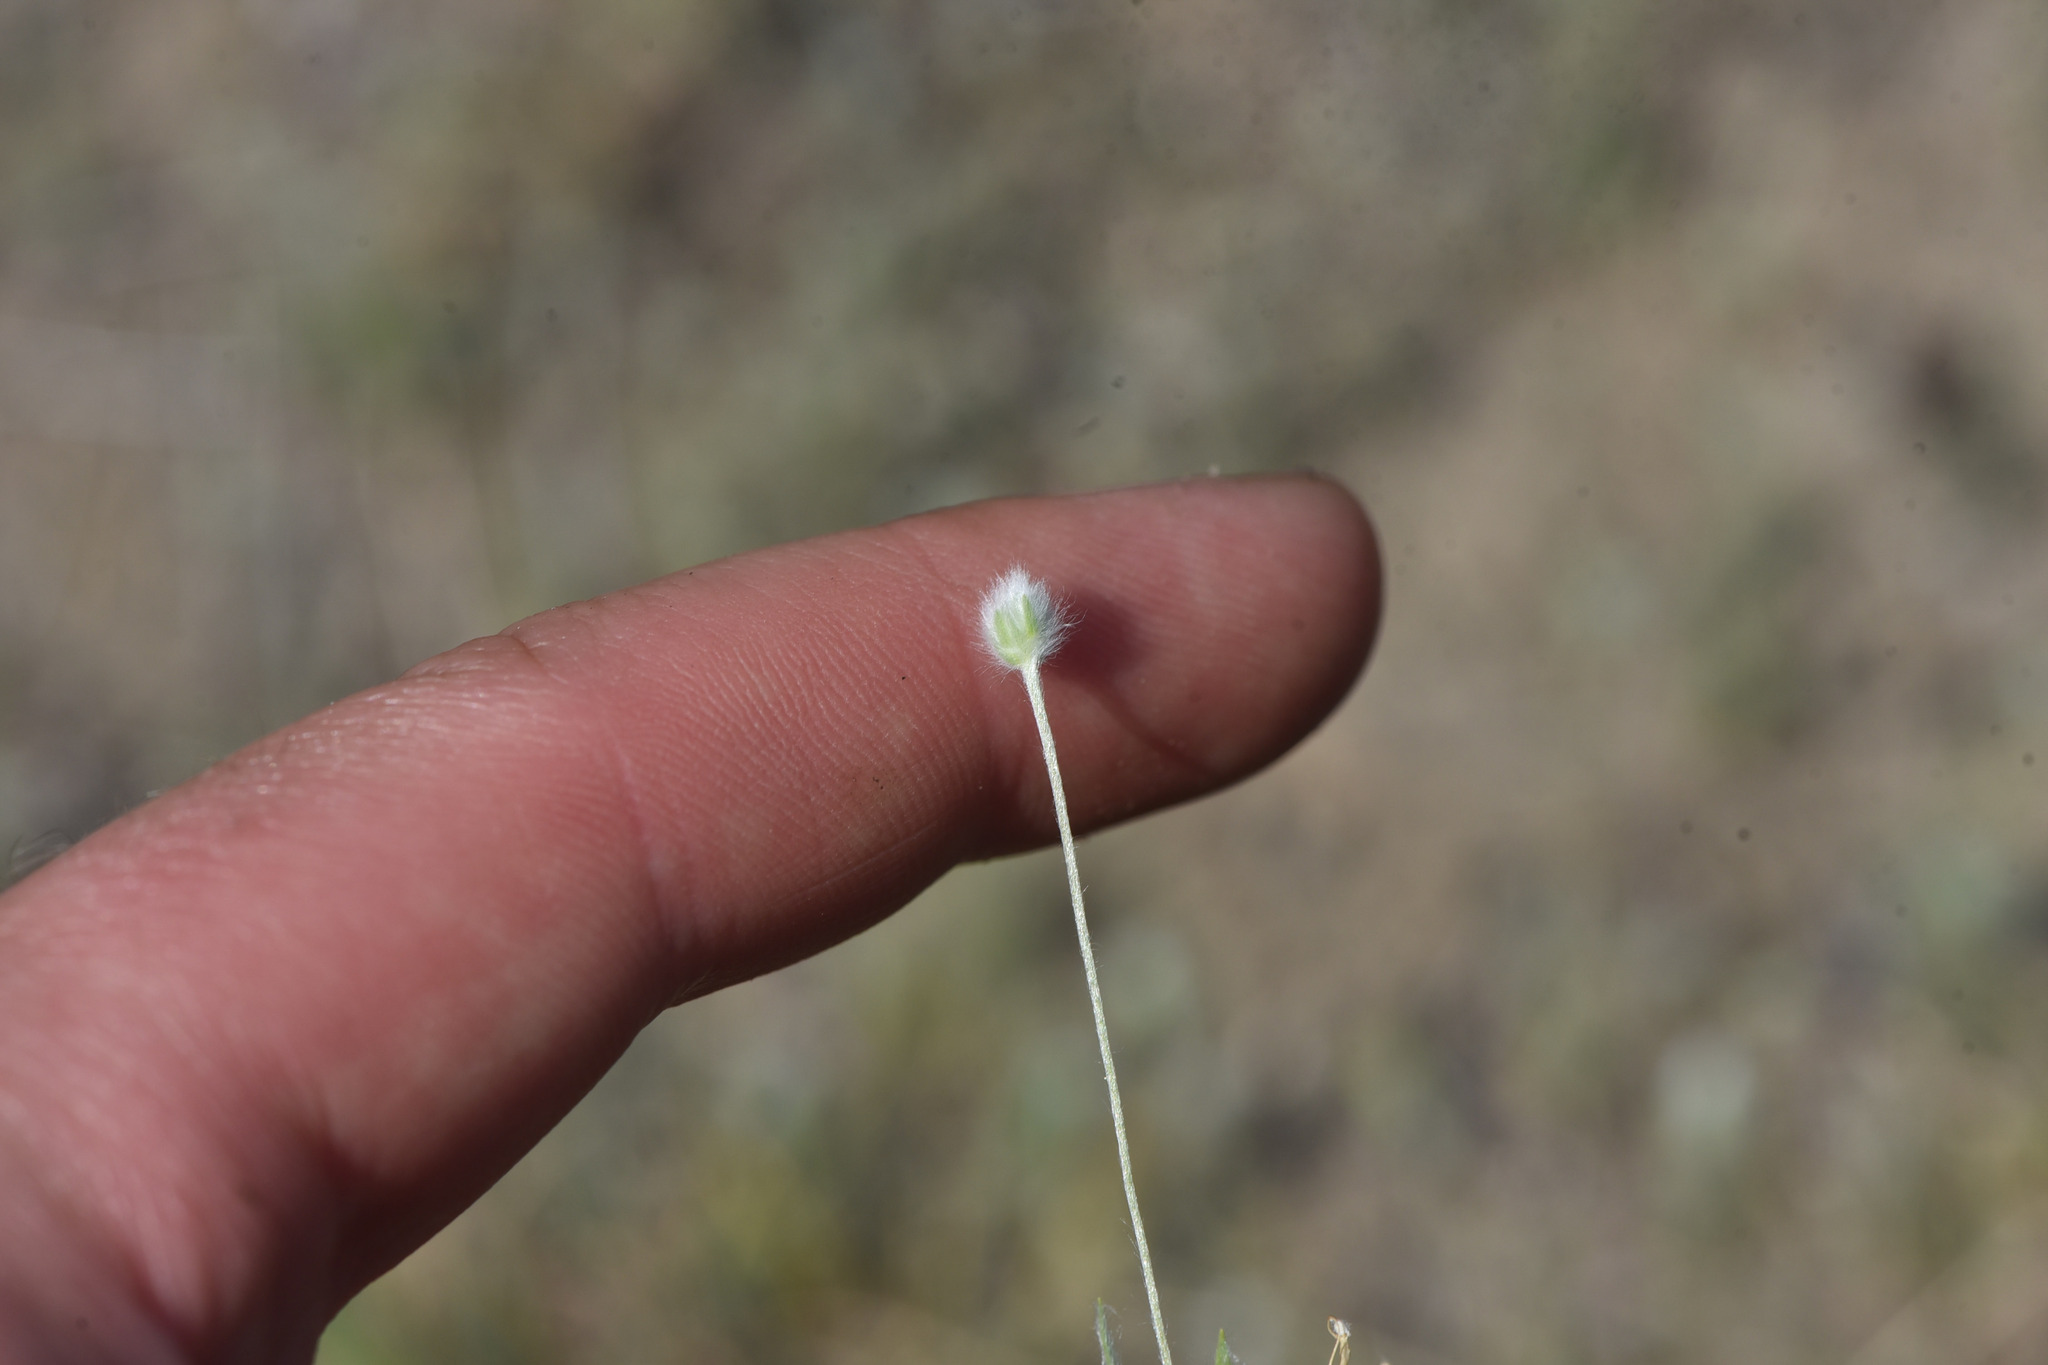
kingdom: Plantae
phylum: Tracheophyta
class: Magnoliopsida
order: Lamiales
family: Plantaginaceae
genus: Plantago
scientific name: Plantago patagonica
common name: Patagonia indian-wheat
